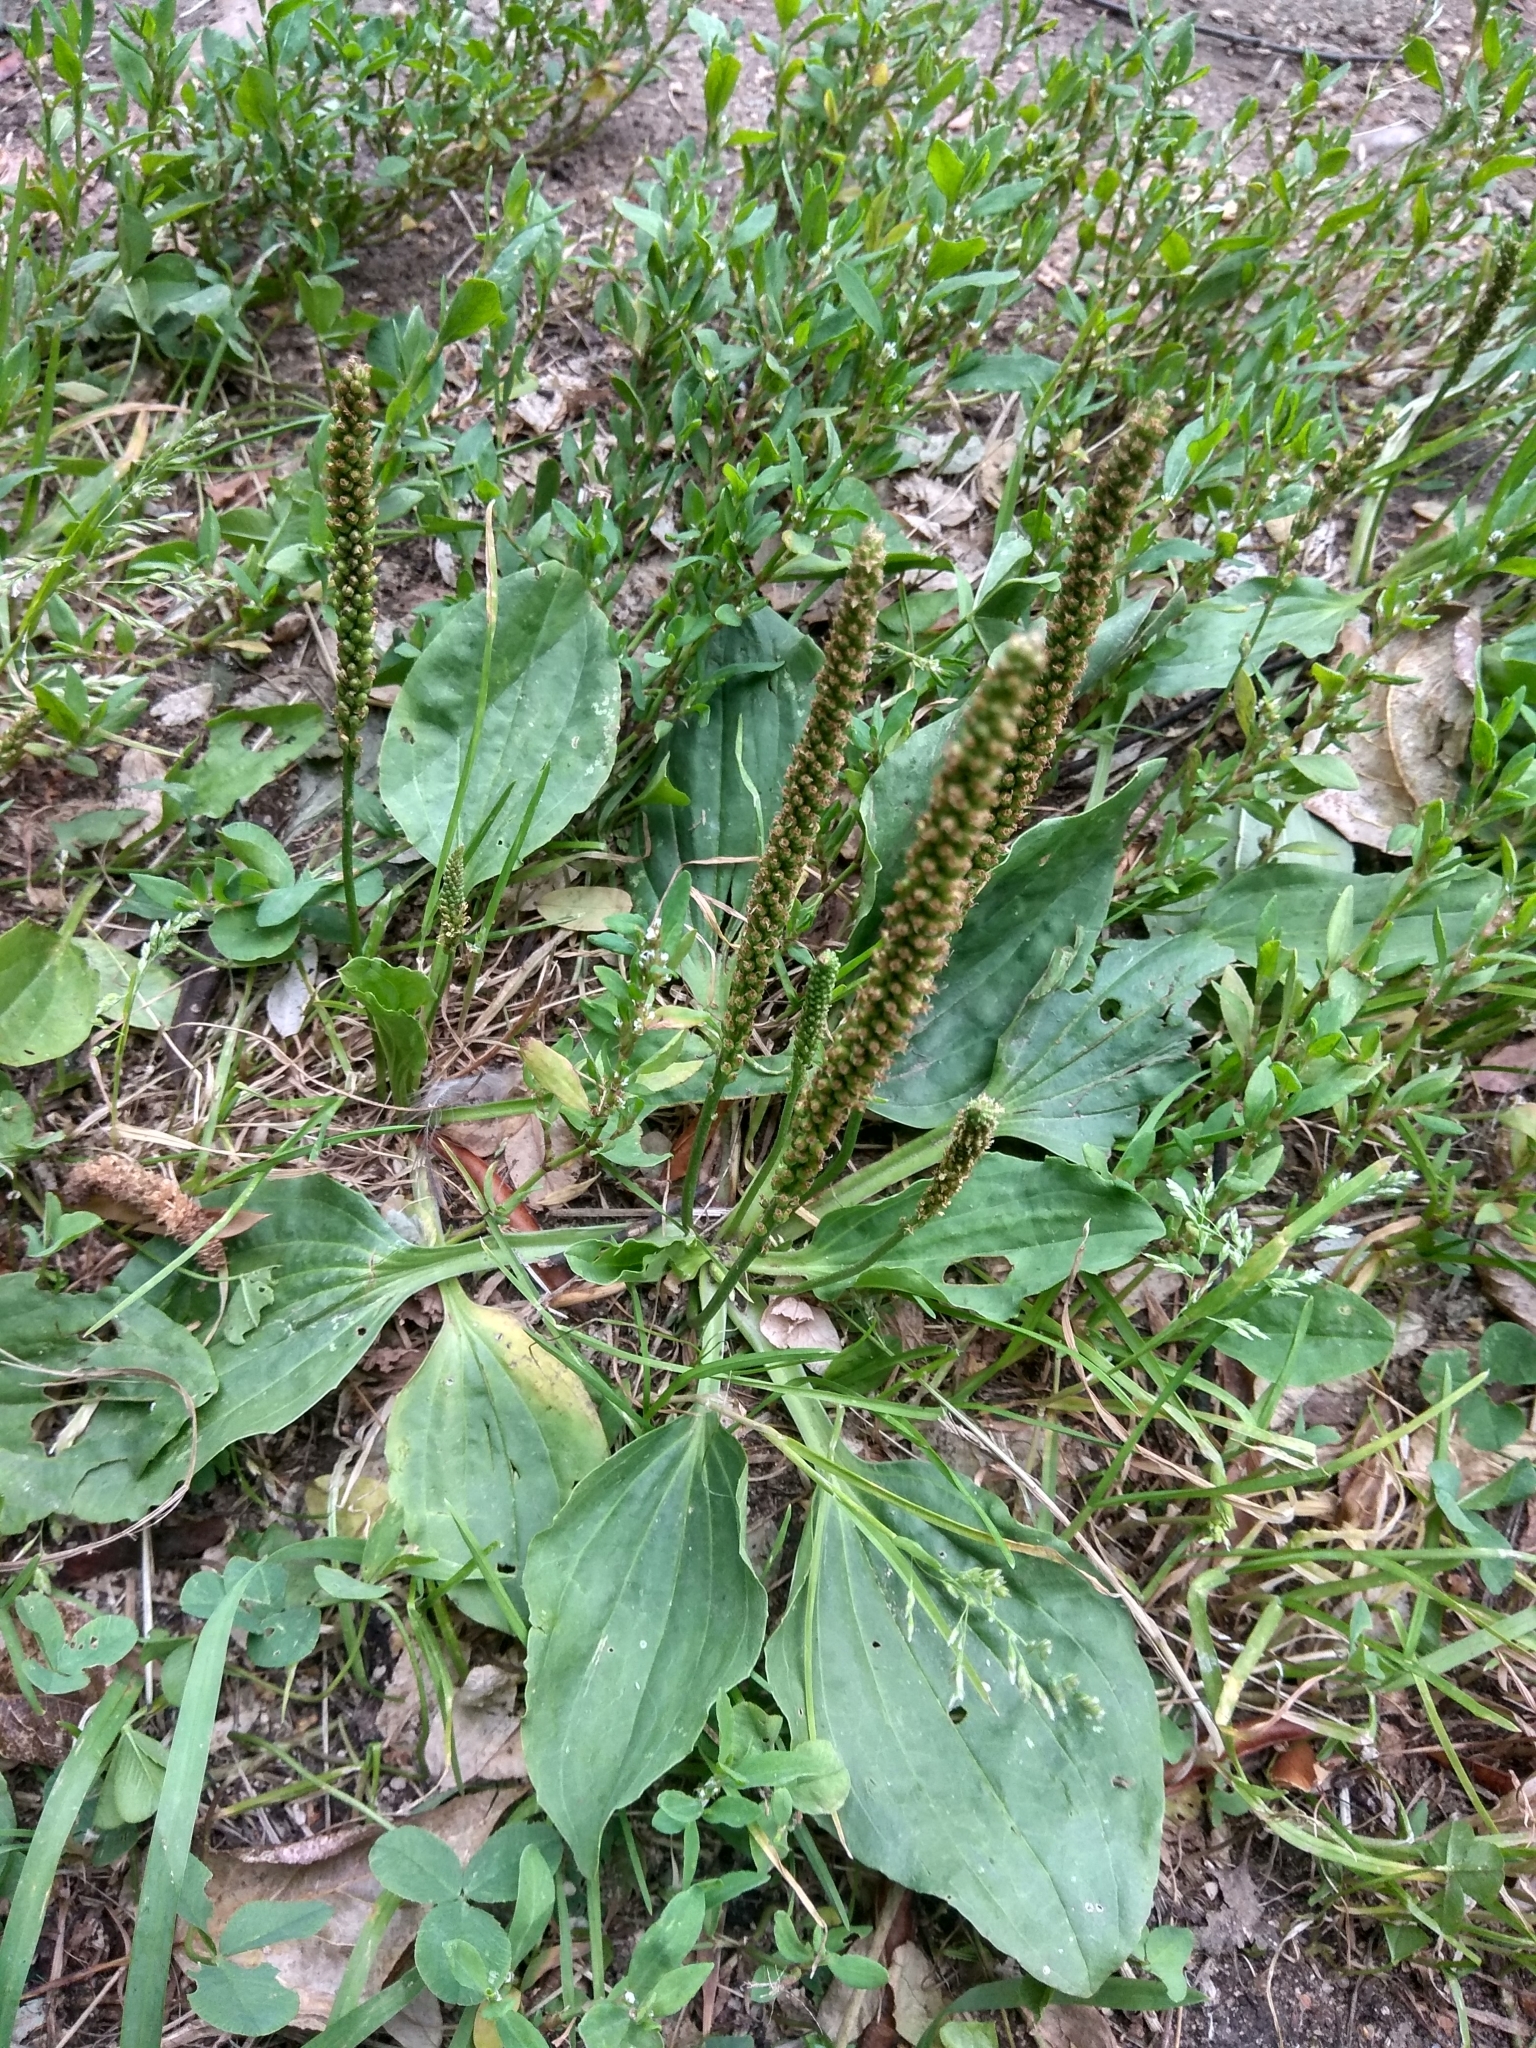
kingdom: Plantae
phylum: Tracheophyta
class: Magnoliopsida
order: Lamiales
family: Plantaginaceae
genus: Plantago
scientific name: Plantago major
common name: Common plantain
